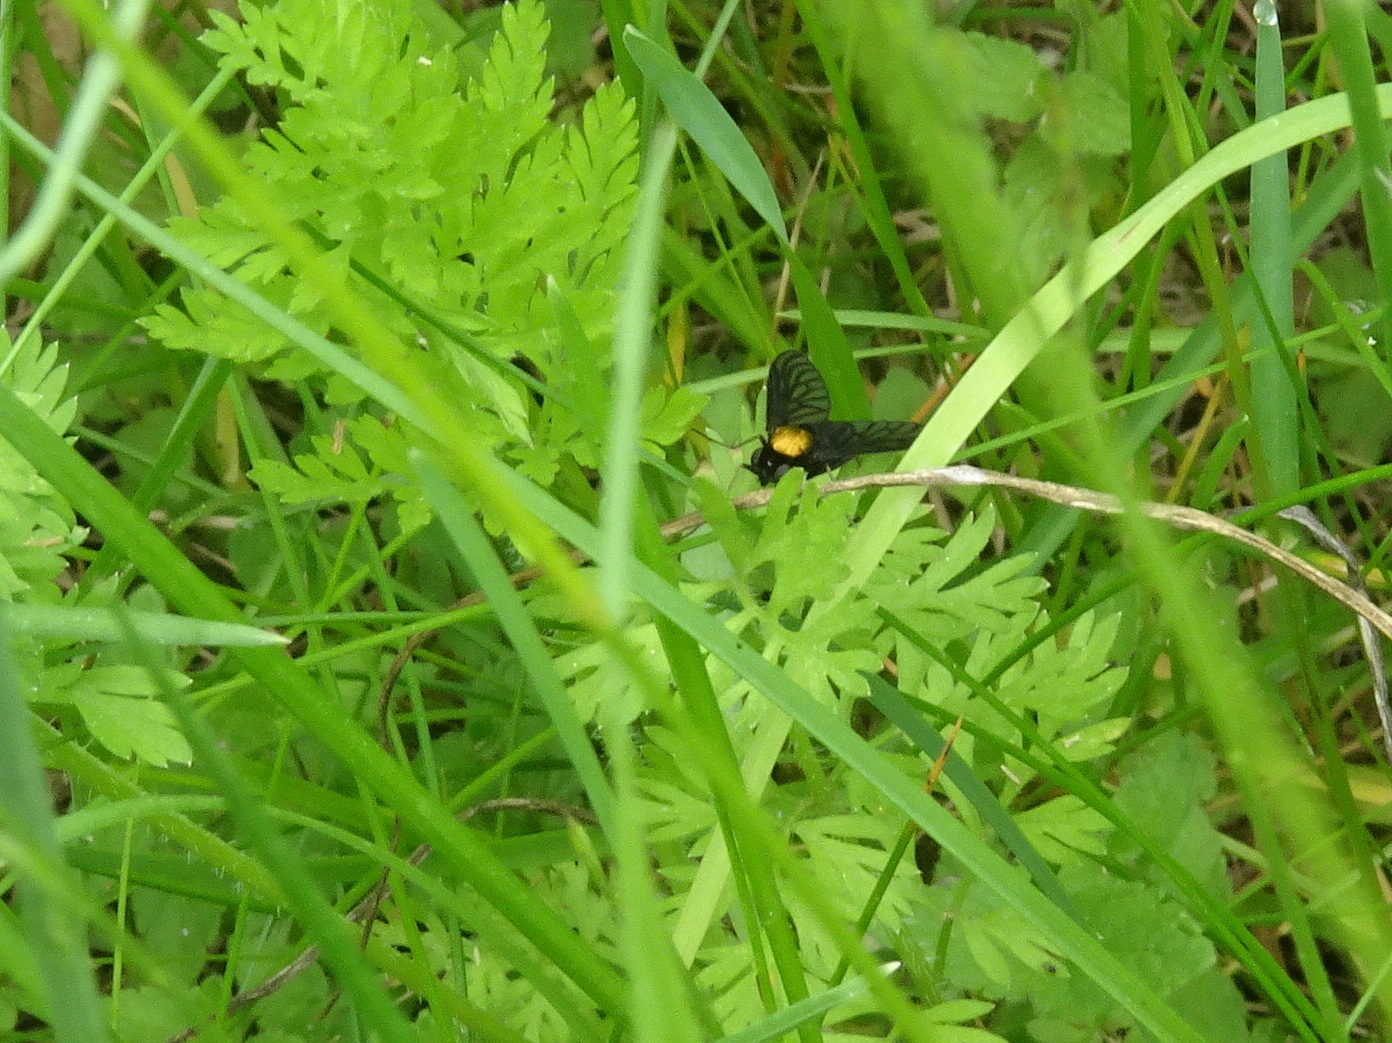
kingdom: Animalia
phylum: Arthropoda
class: Insecta
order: Diptera
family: Rhagionidae
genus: Chrysopilus
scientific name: Chrysopilus thoracicus
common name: Golden-backed snipe fly
